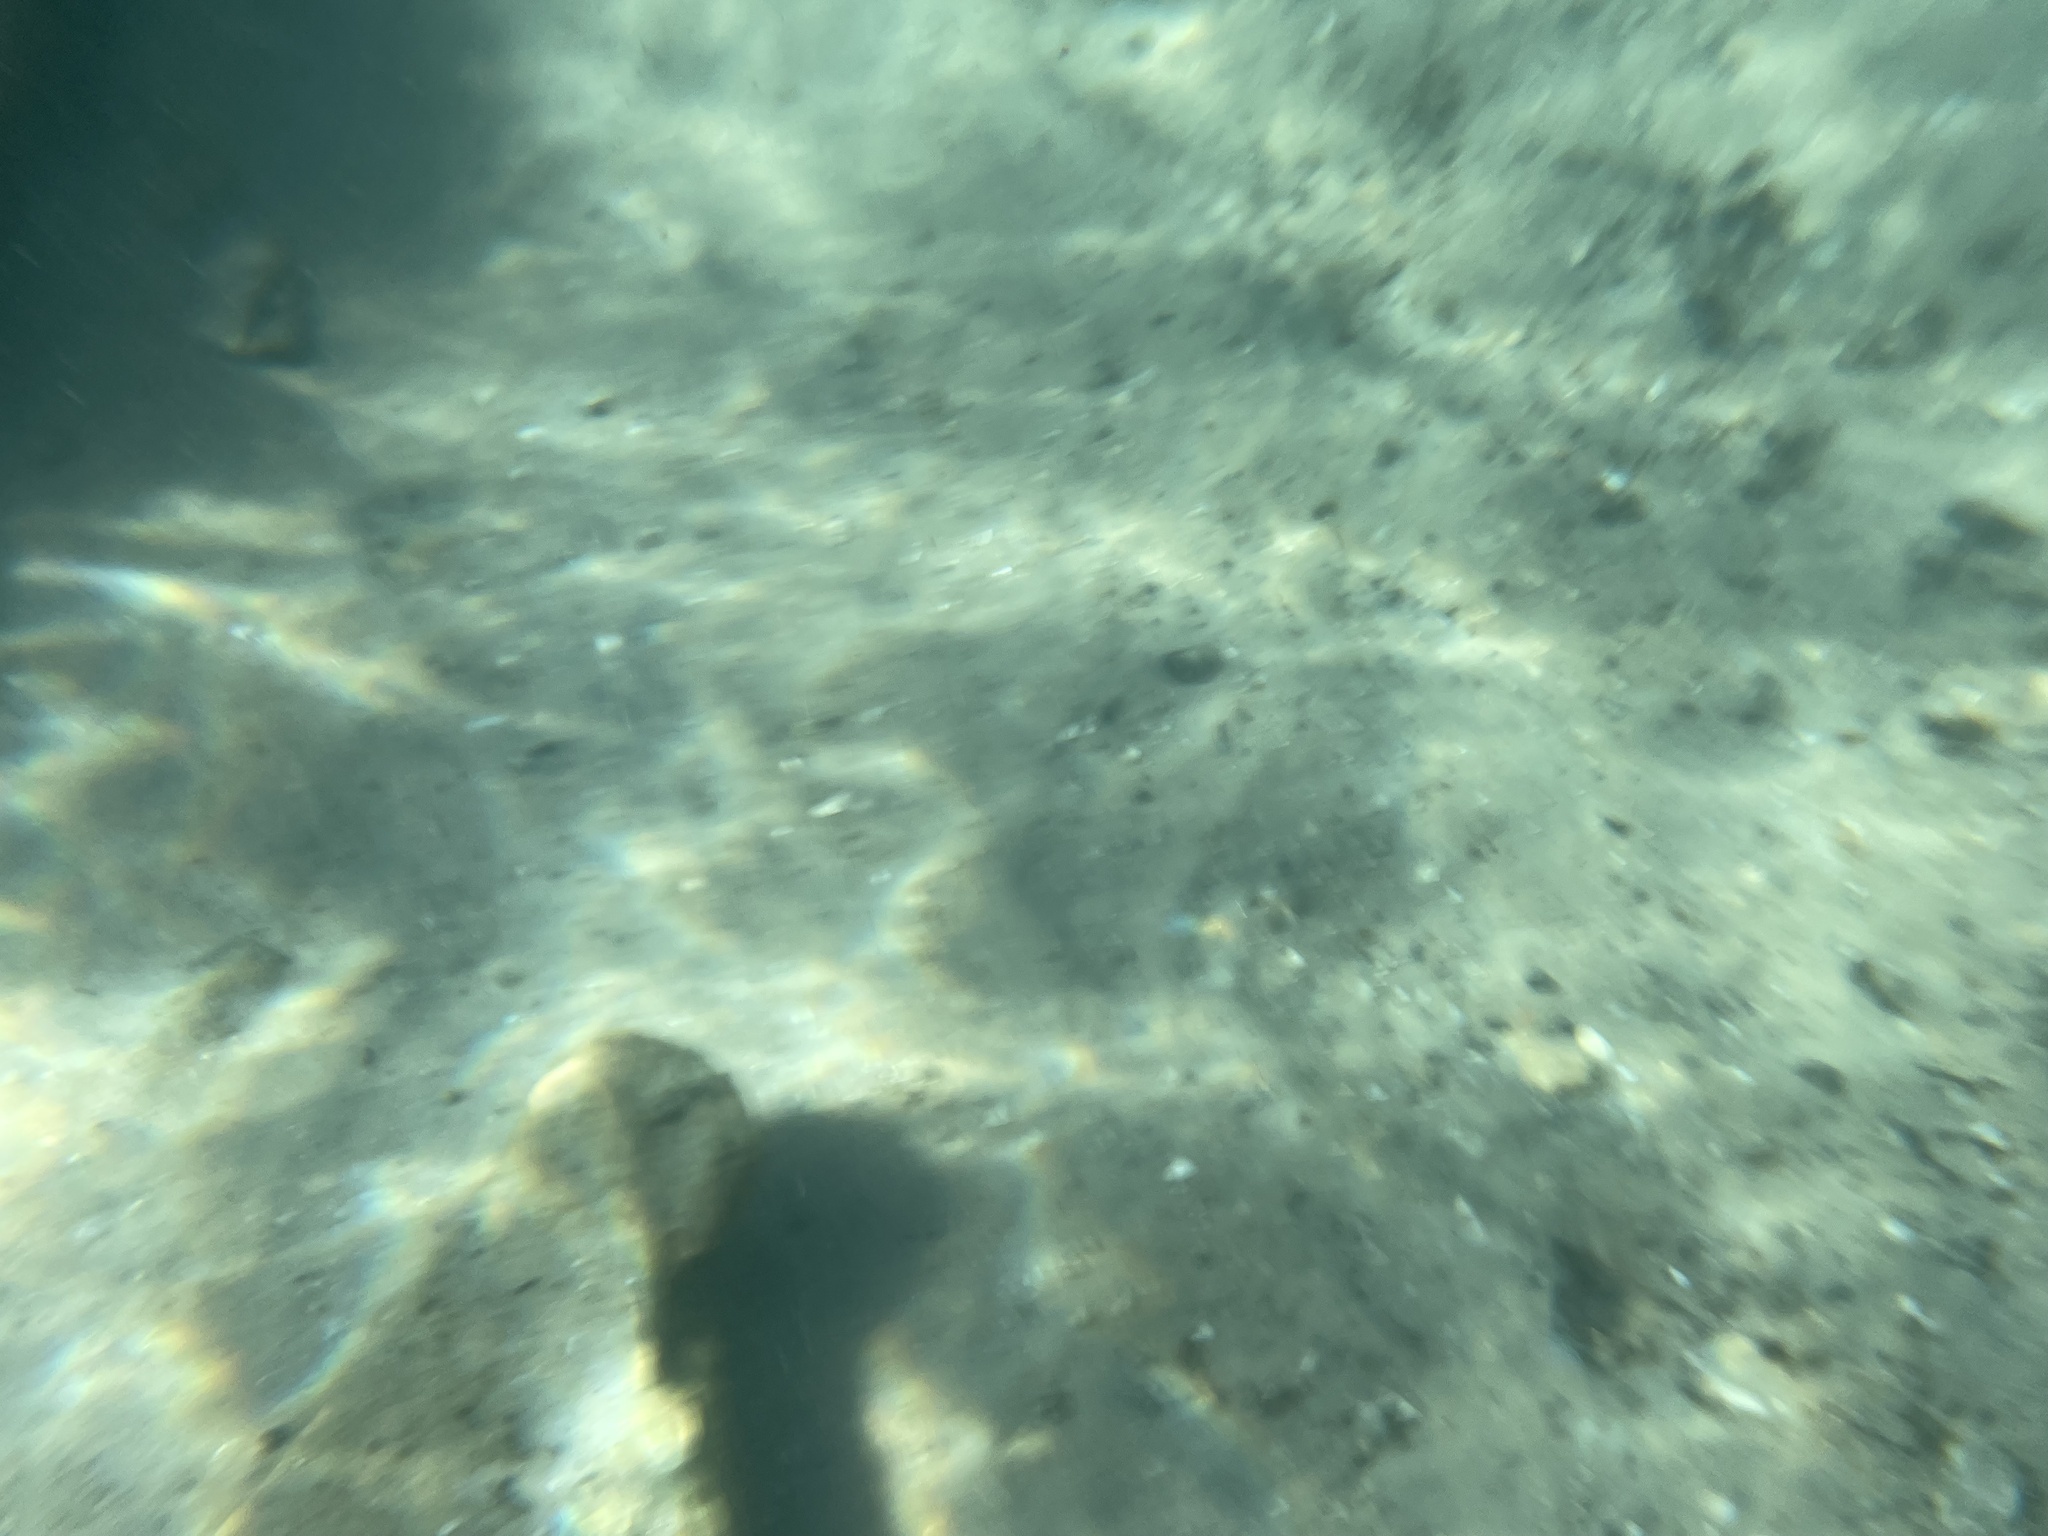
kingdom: Animalia
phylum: Chordata
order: Perciformes
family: Sphyraenidae
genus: Sphyraena
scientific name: Sphyraena barracuda
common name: Great barracuda
